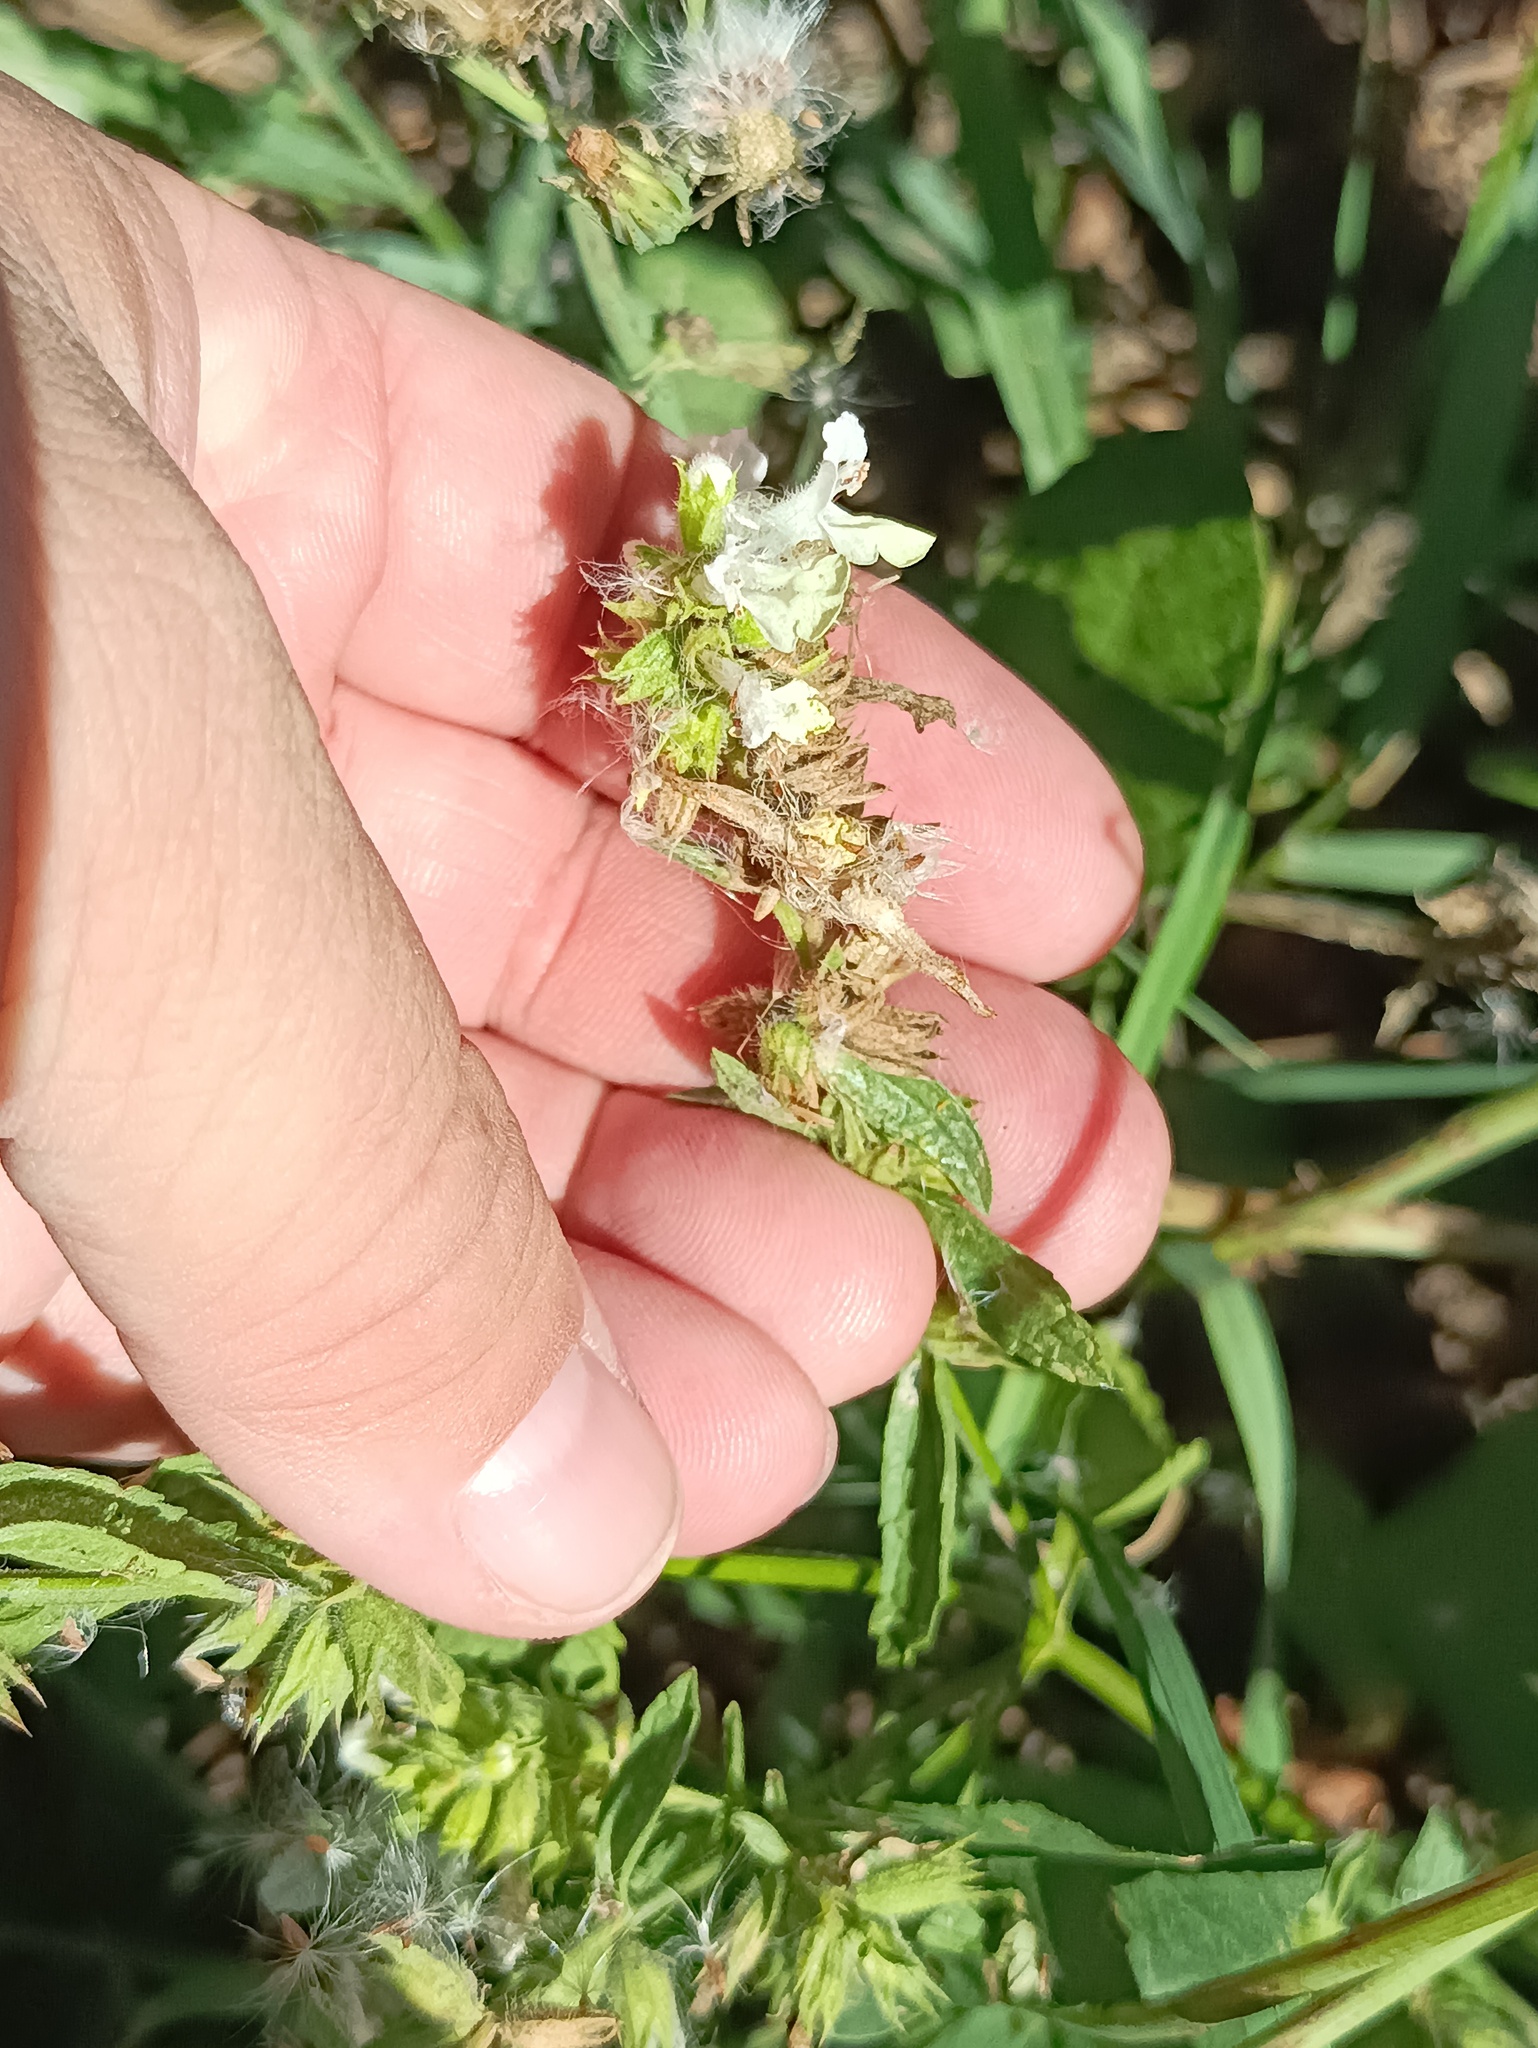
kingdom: Plantae
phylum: Tracheophyta
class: Magnoliopsida
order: Lamiales
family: Lamiaceae
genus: Stachys
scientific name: Stachys annua
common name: Annual yellow-woundwort
